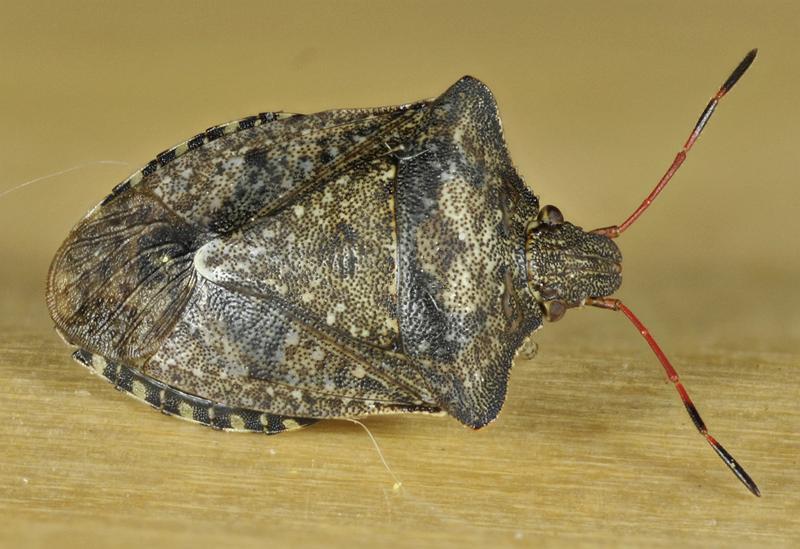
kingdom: Animalia
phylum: Arthropoda
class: Insecta
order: Hemiptera
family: Pentatomidae
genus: Euschistus
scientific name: Euschistus tristigmus
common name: Dusky stink bug
